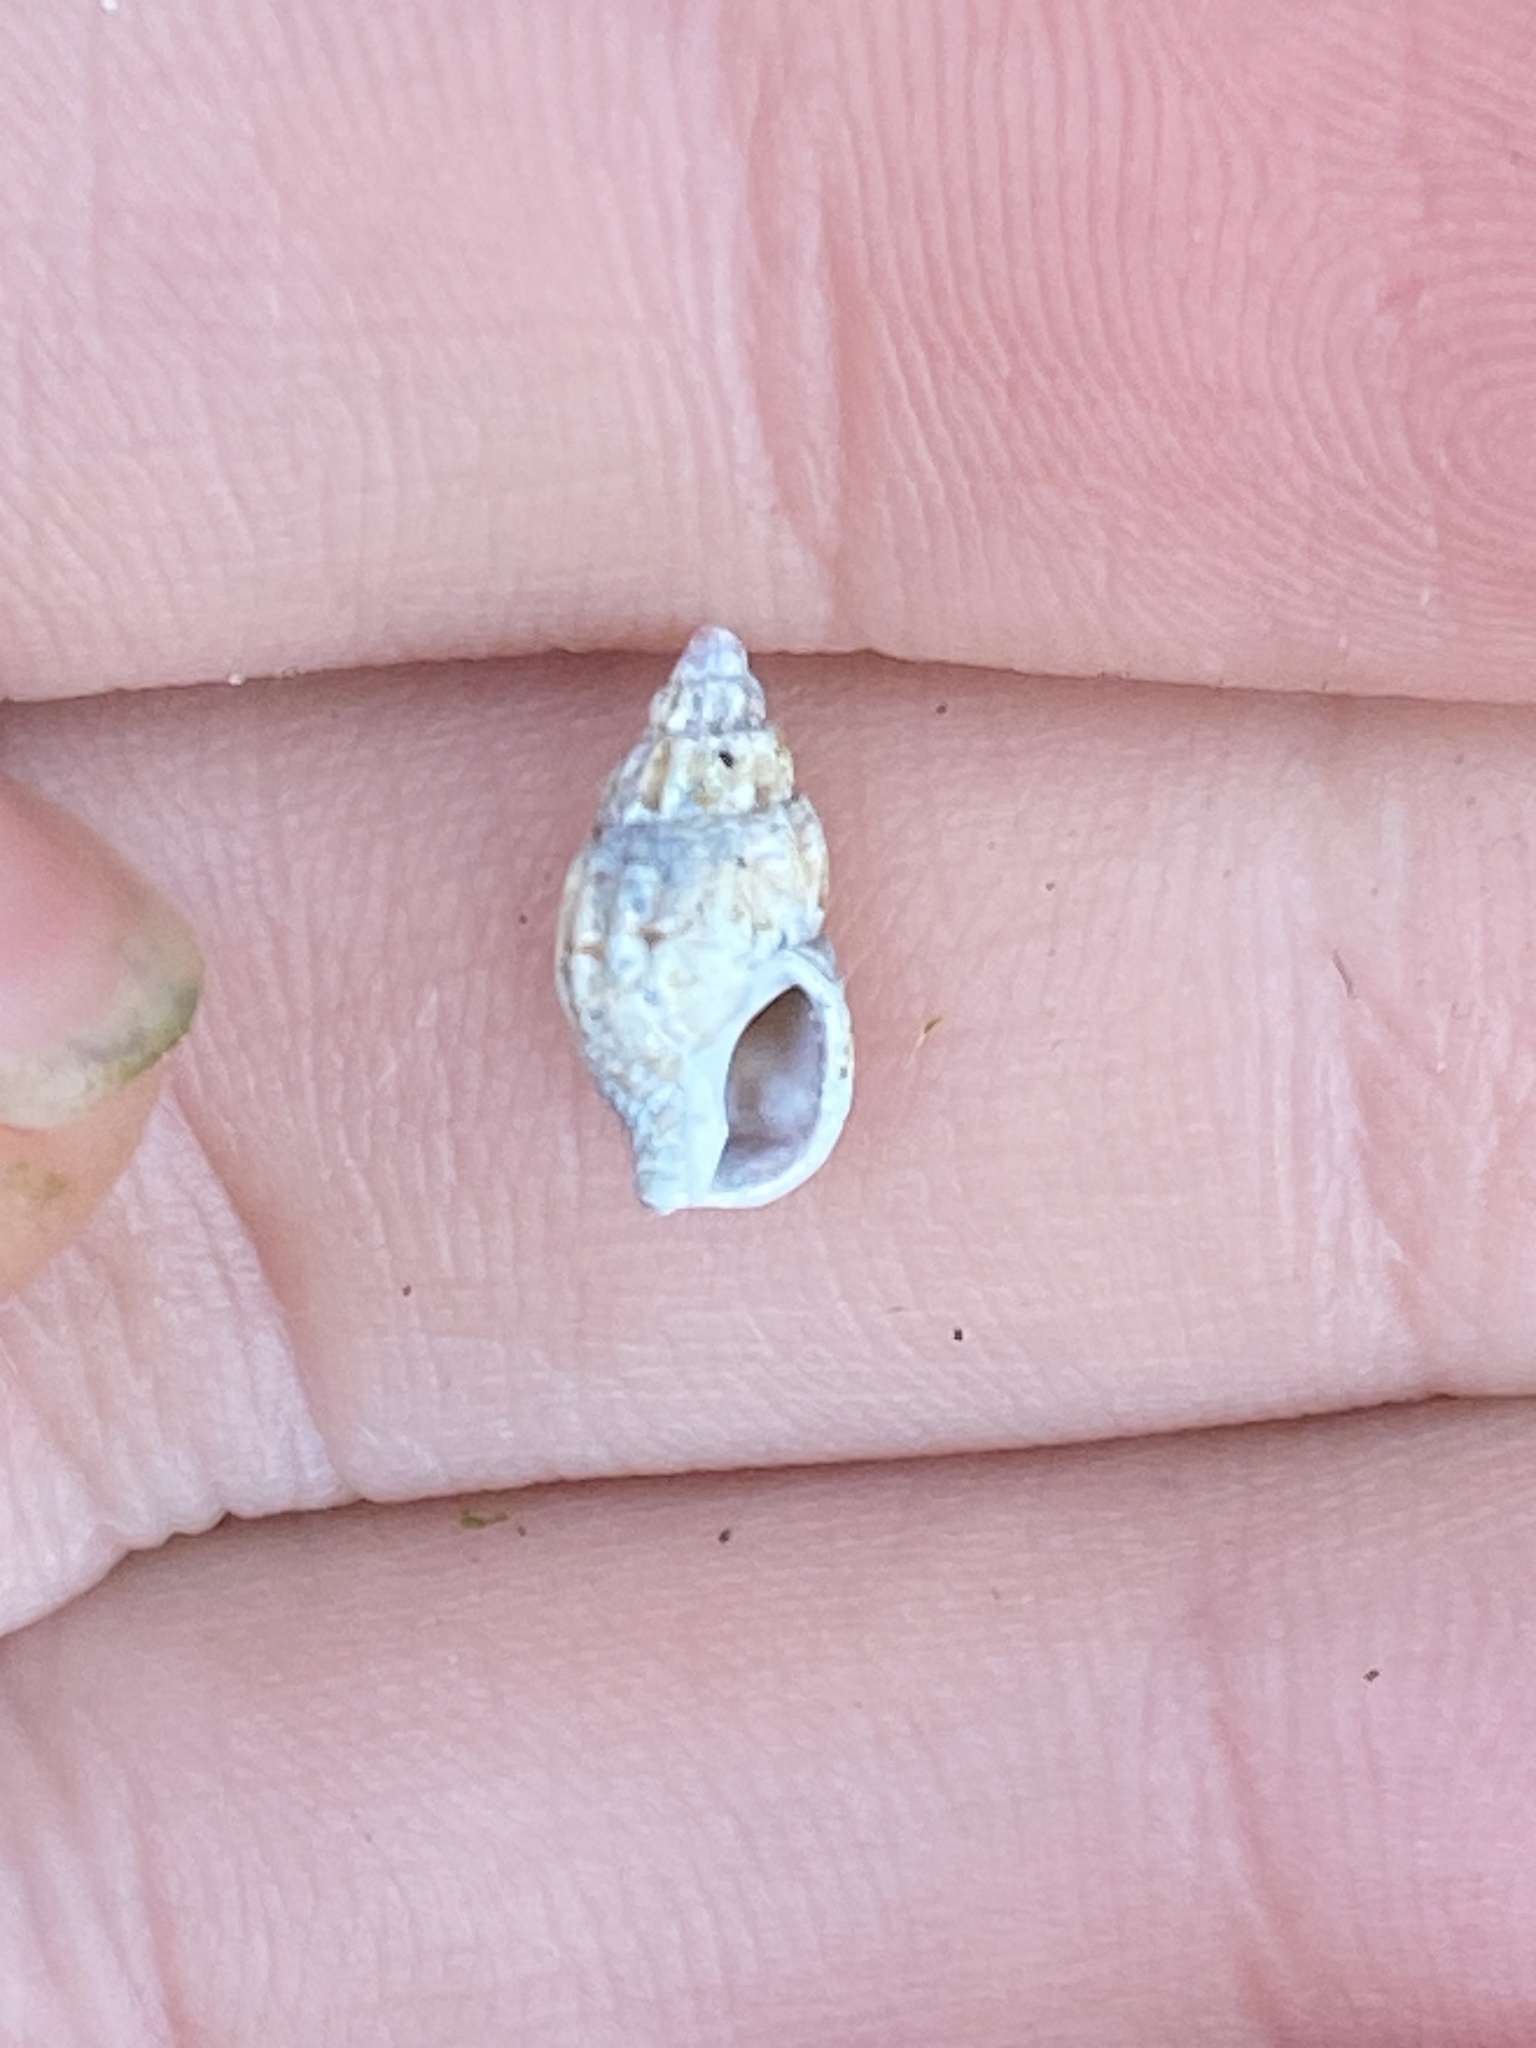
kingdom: Animalia
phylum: Mollusca
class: Gastropoda
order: Neogastropoda
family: Columbellidae
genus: Amphissa
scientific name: Amphissa versicolor
